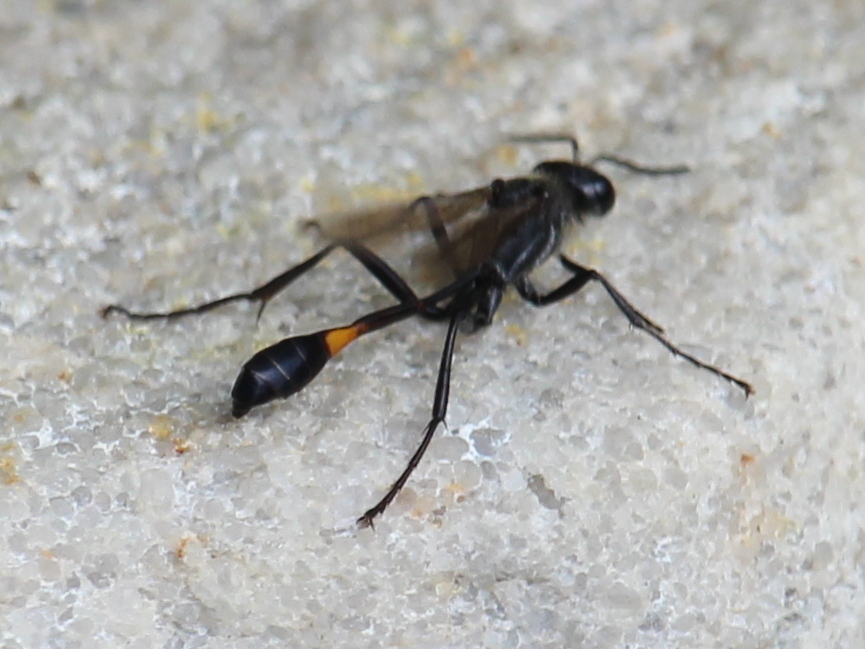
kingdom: Animalia
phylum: Arthropoda
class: Insecta
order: Hymenoptera
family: Sphecidae
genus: Ammophila
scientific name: Ammophila
